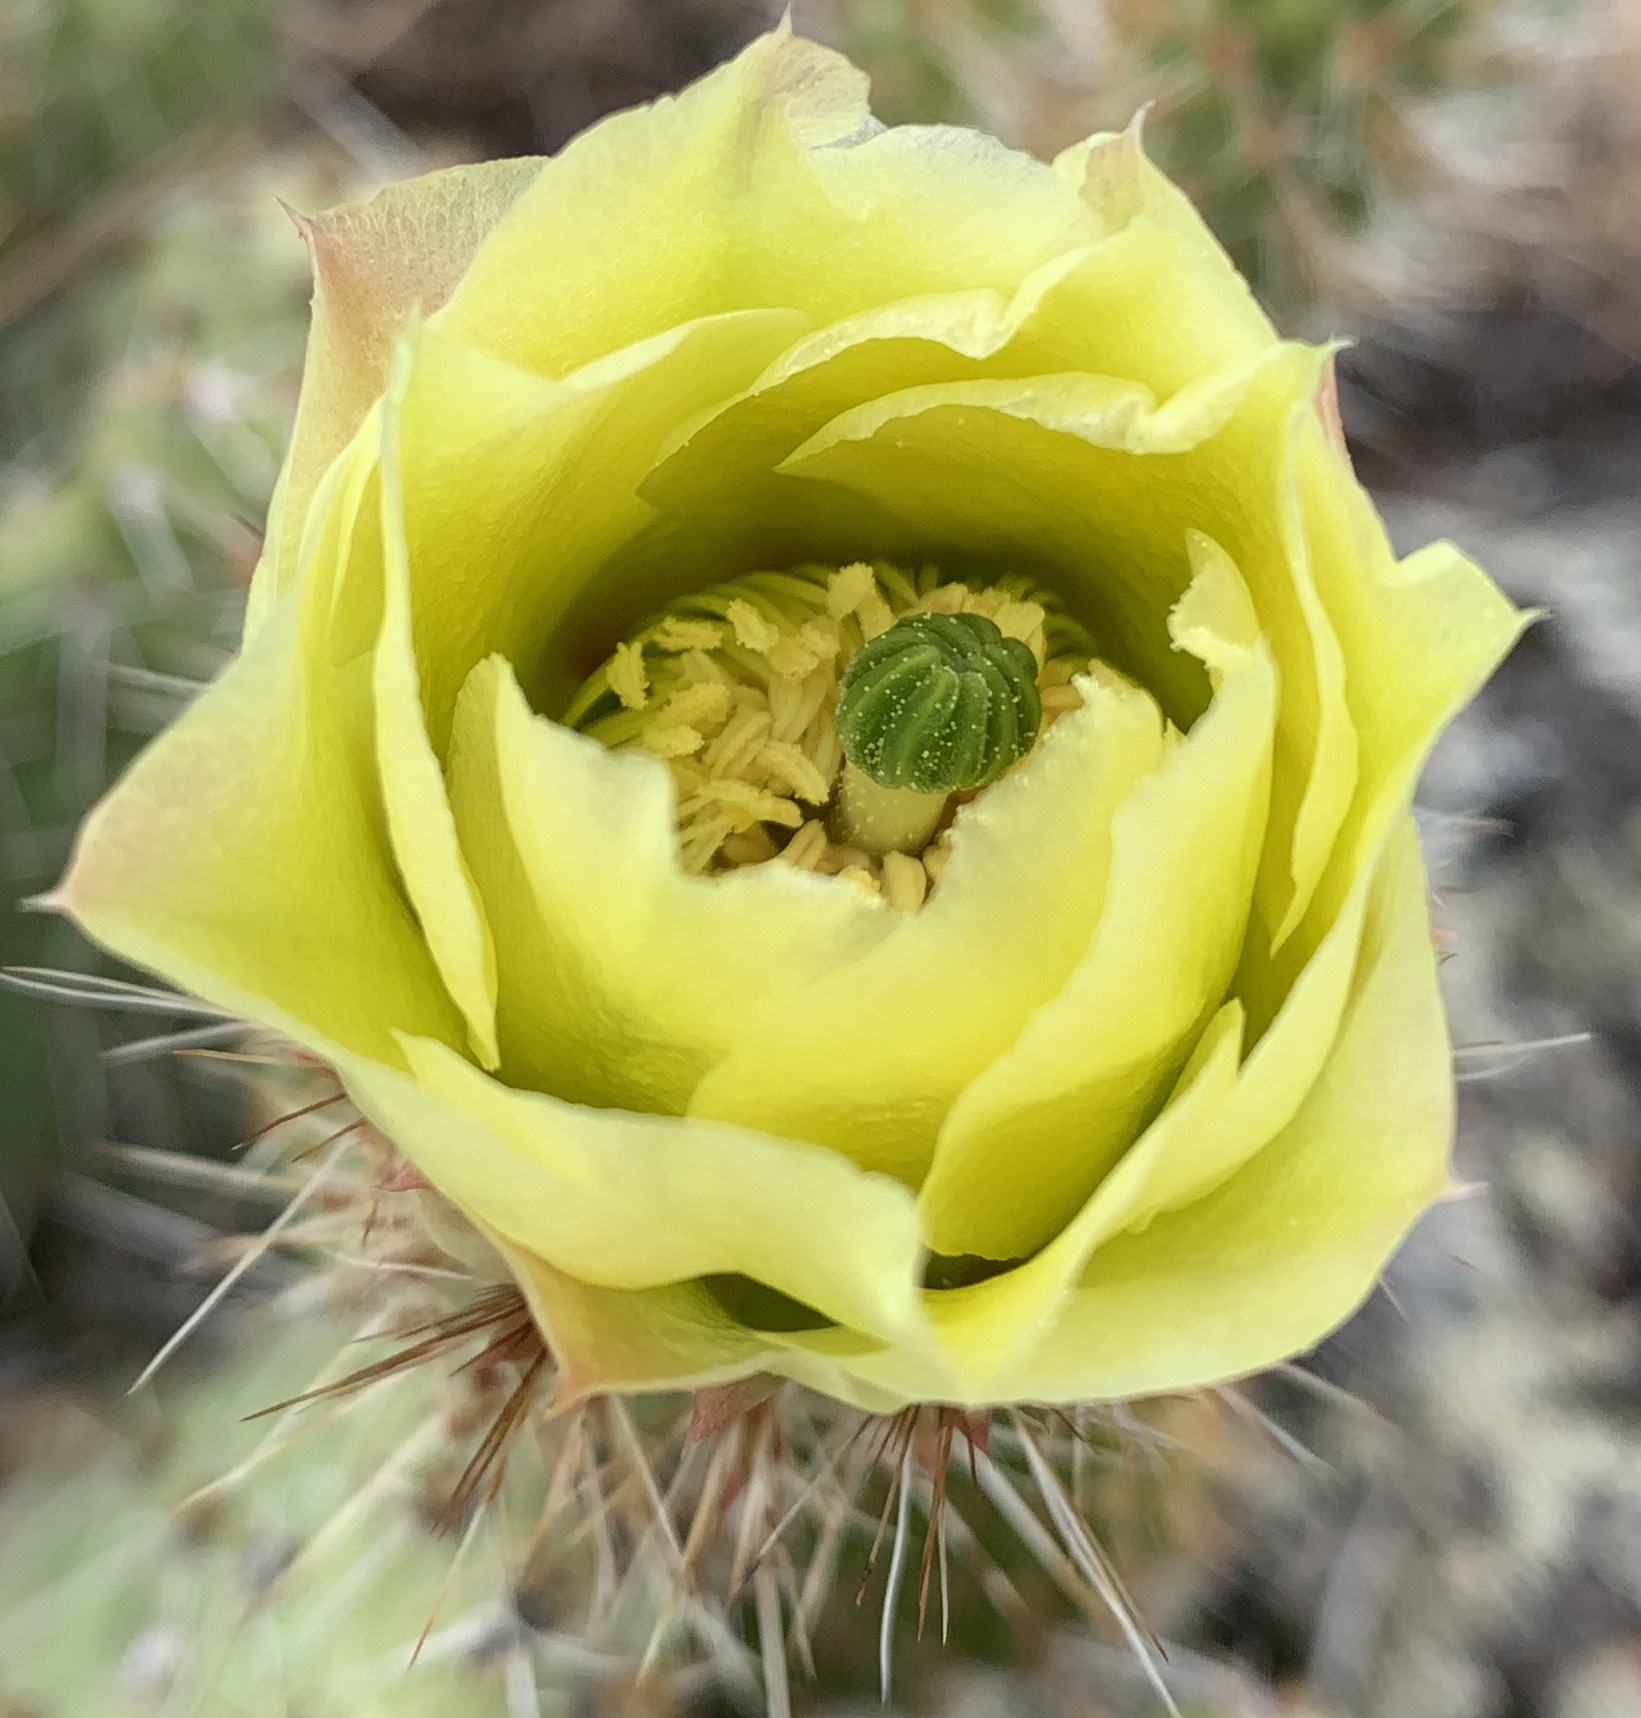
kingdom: Plantae
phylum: Tracheophyta
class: Magnoliopsida
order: Caryophyllales
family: Cactaceae
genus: Opuntia
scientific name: Opuntia polyacantha
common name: Plains prickly-pear
